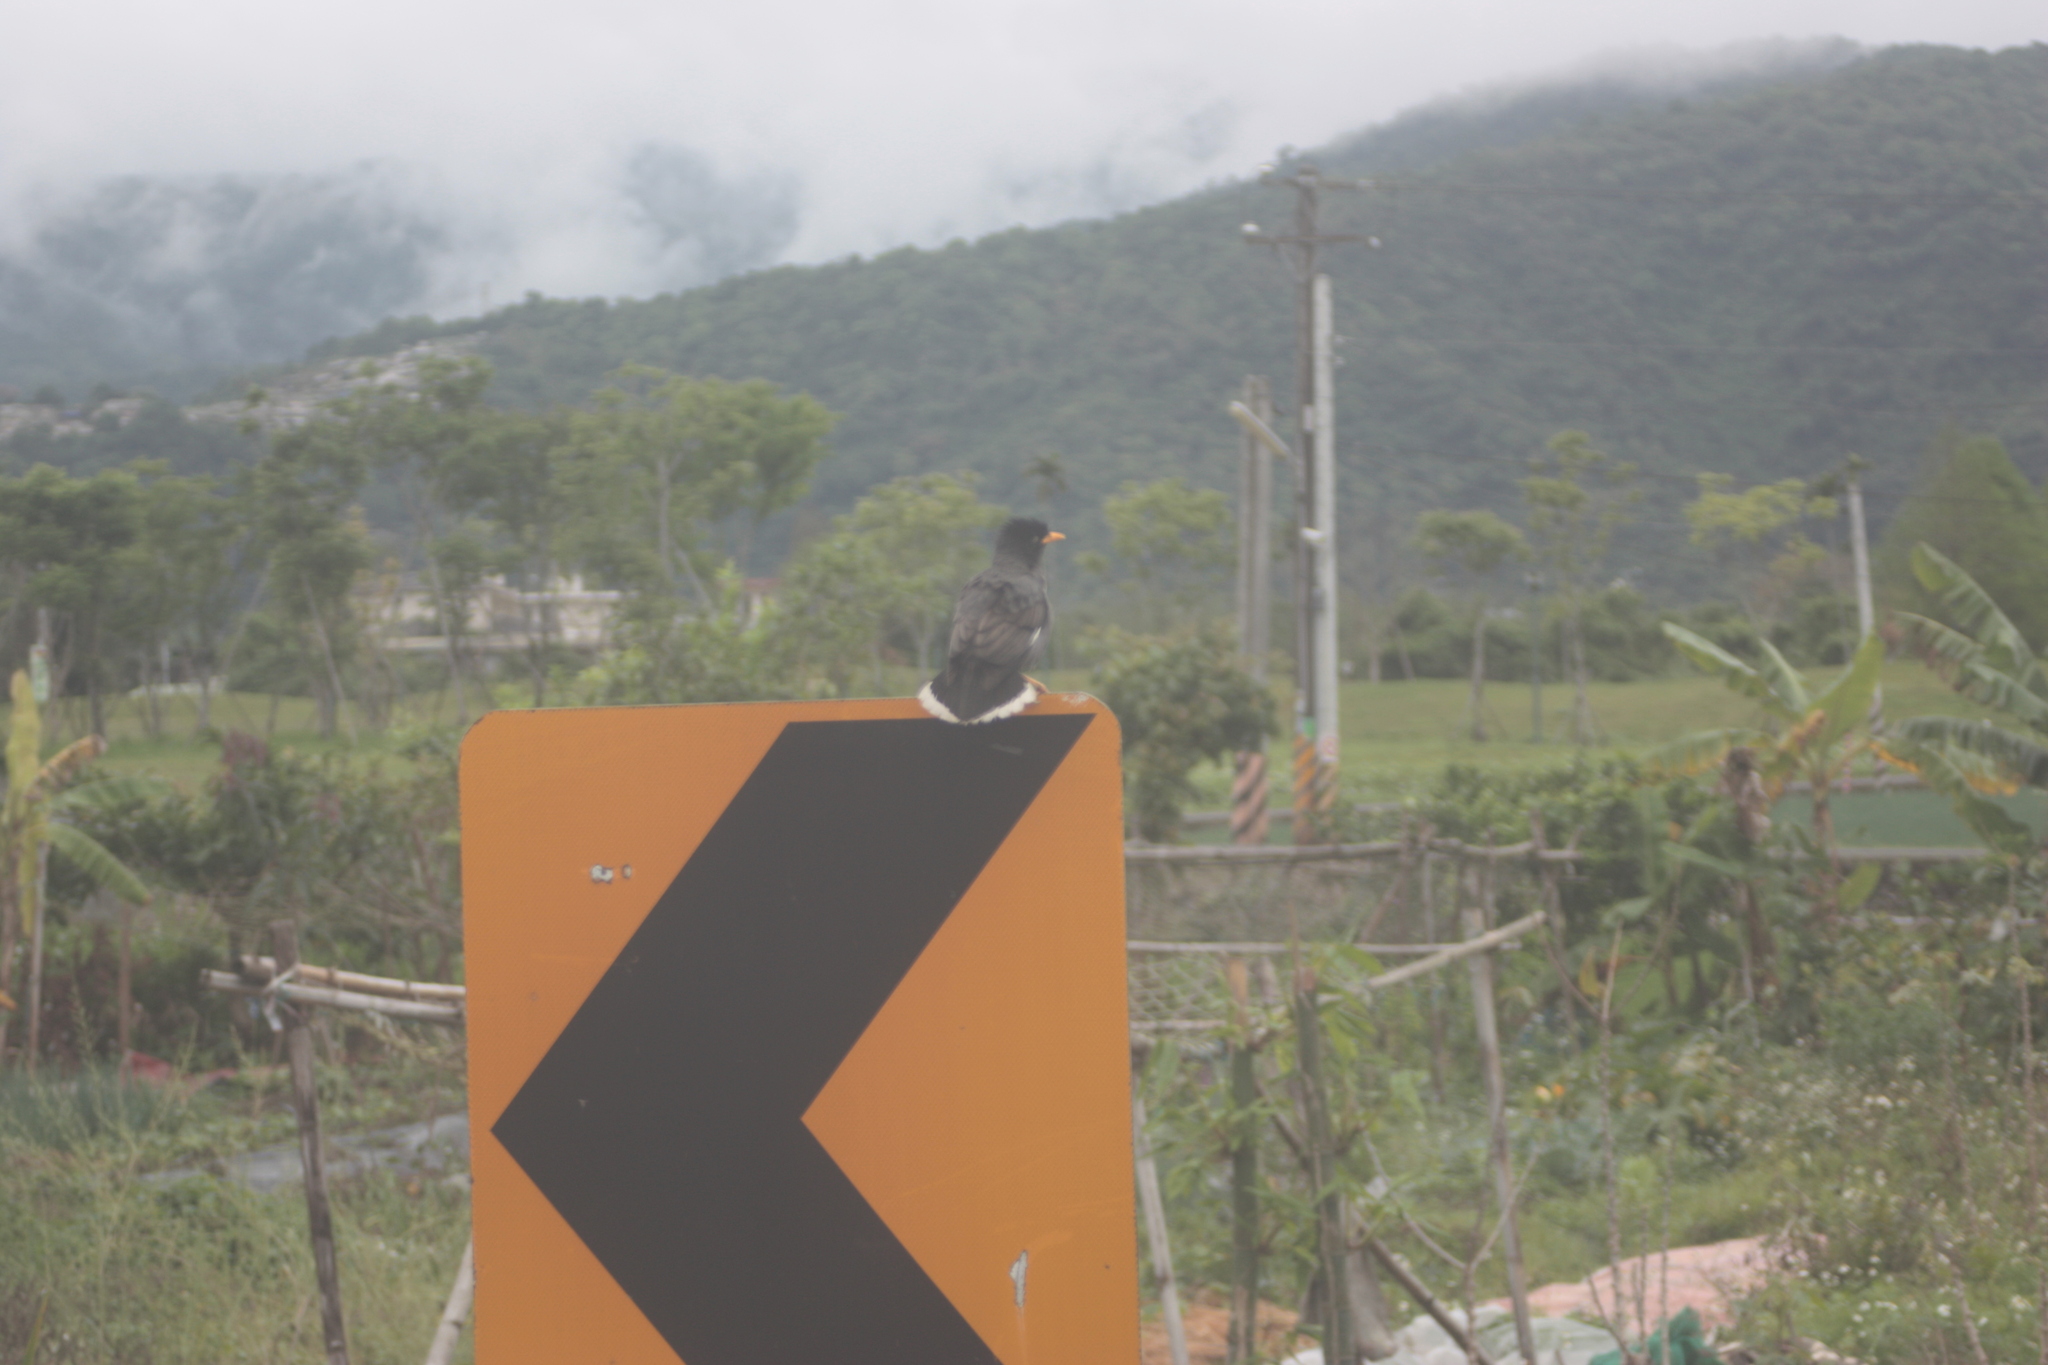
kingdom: Animalia
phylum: Chordata
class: Aves
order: Passeriformes
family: Sturnidae
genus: Acridotheres
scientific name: Acridotheres javanicus
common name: Javan myna
